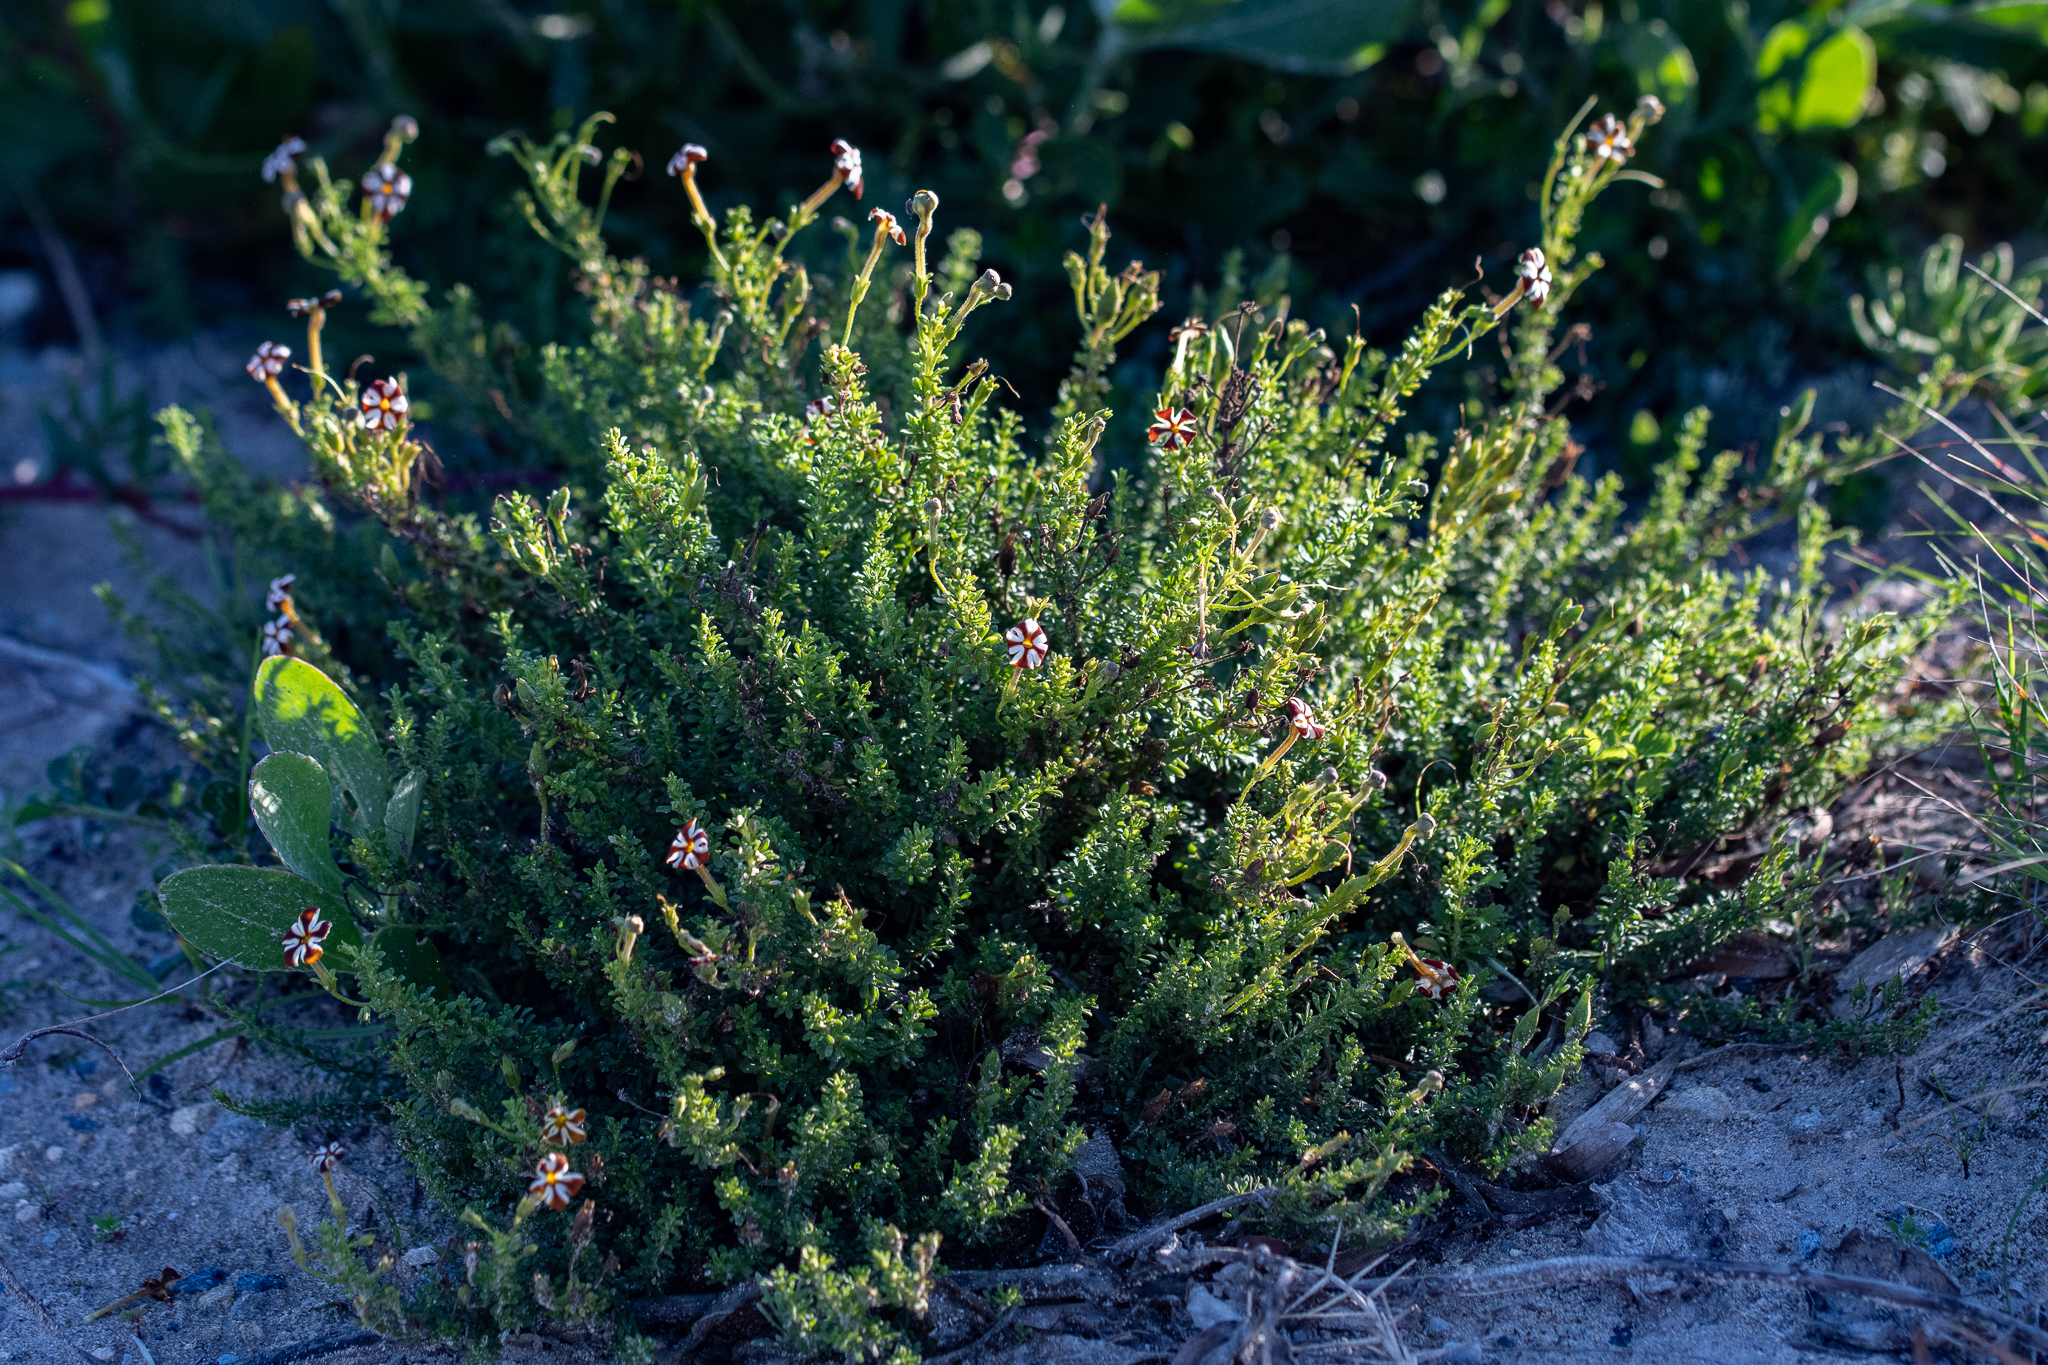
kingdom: Plantae
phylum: Tracheophyta
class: Magnoliopsida
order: Lamiales
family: Scrophulariaceae
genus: Jamesbrittenia
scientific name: Jamesbrittenia albomarginata
